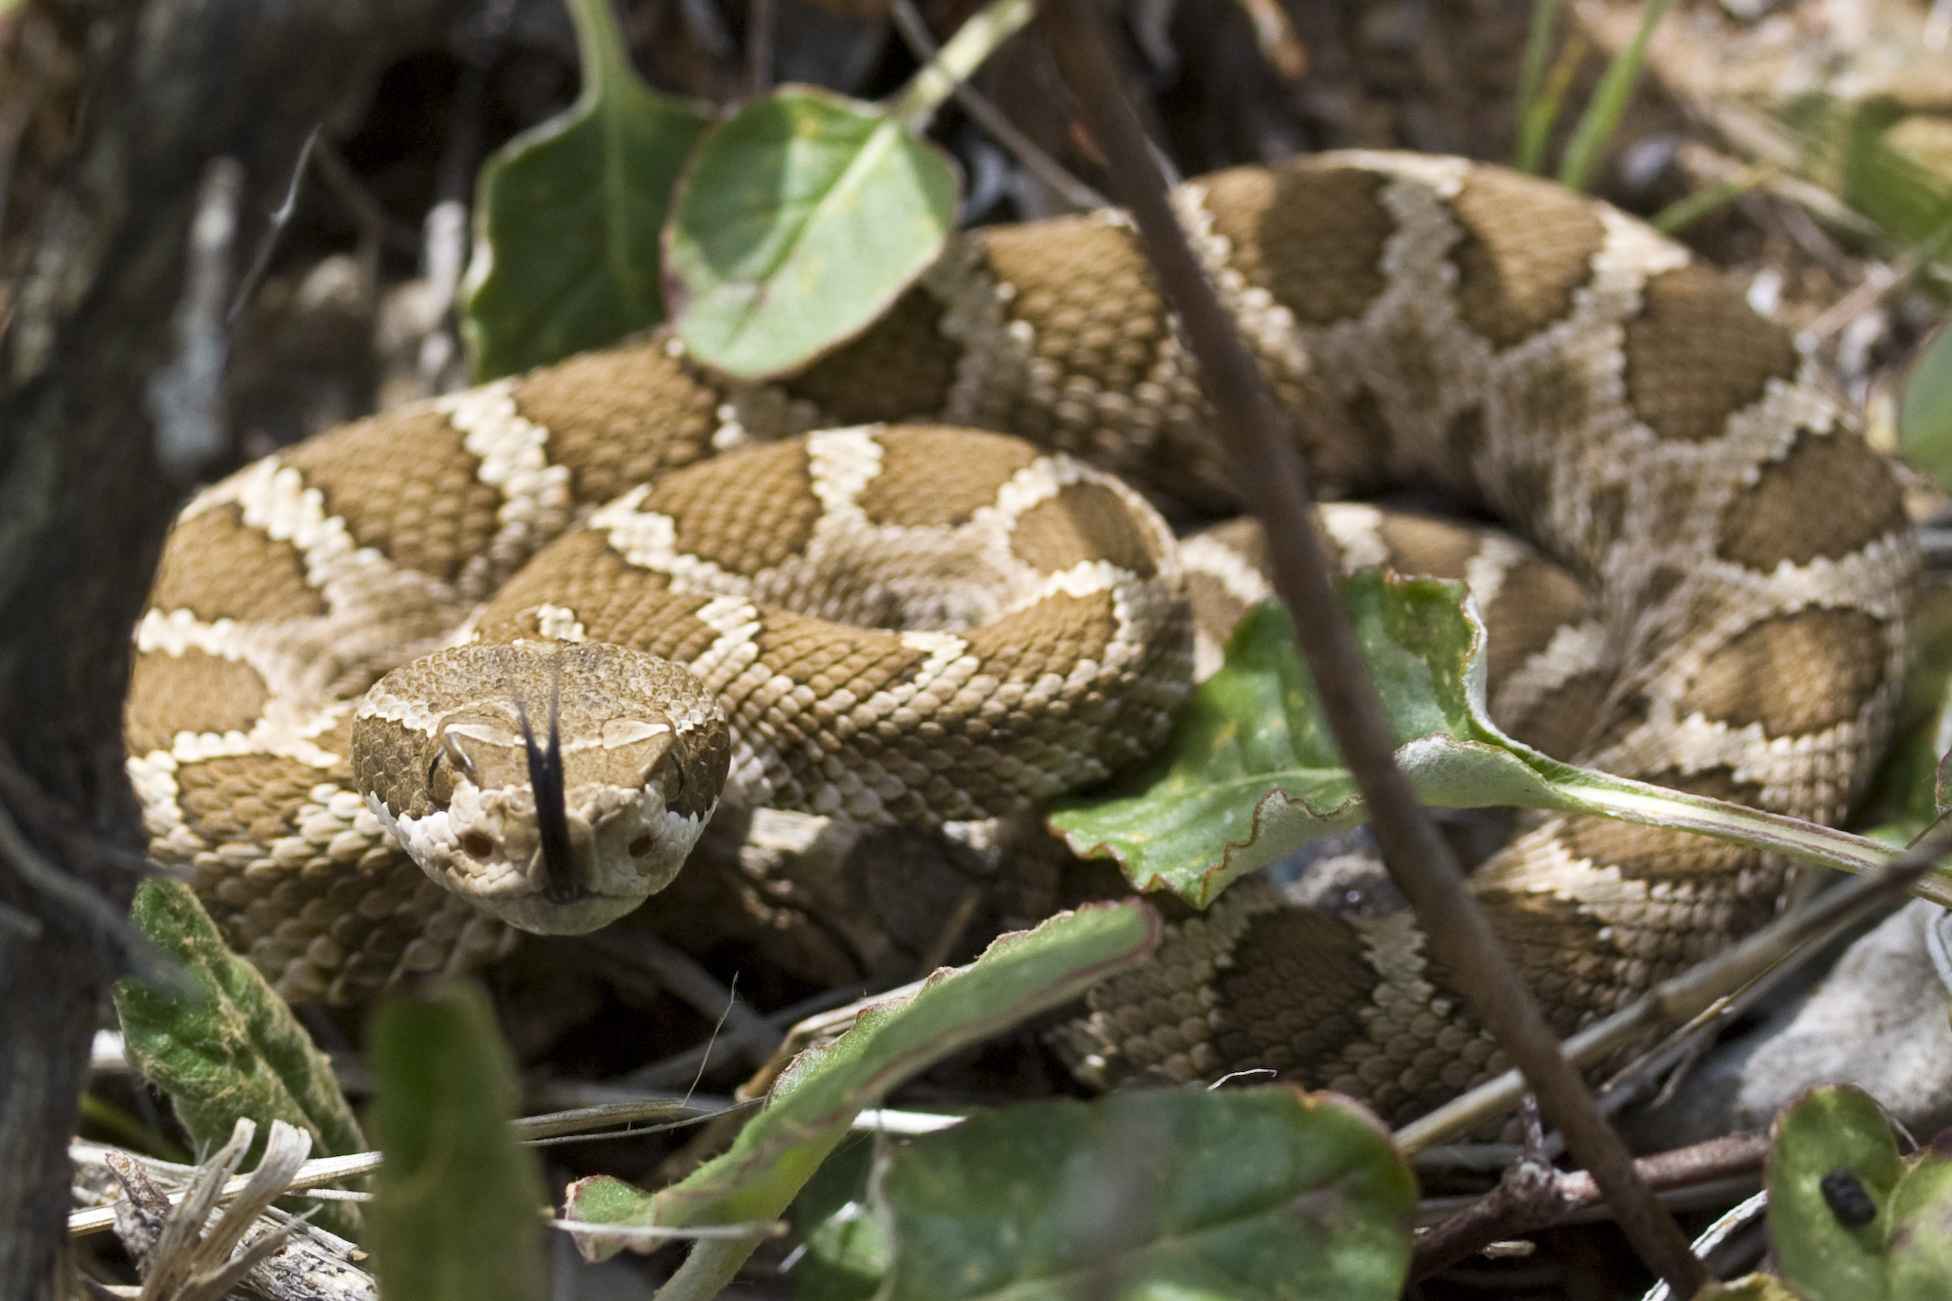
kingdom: Animalia
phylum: Chordata
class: Squamata
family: Viperidae
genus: Crotalus
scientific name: Crotalus oreganus
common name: Abyssus
